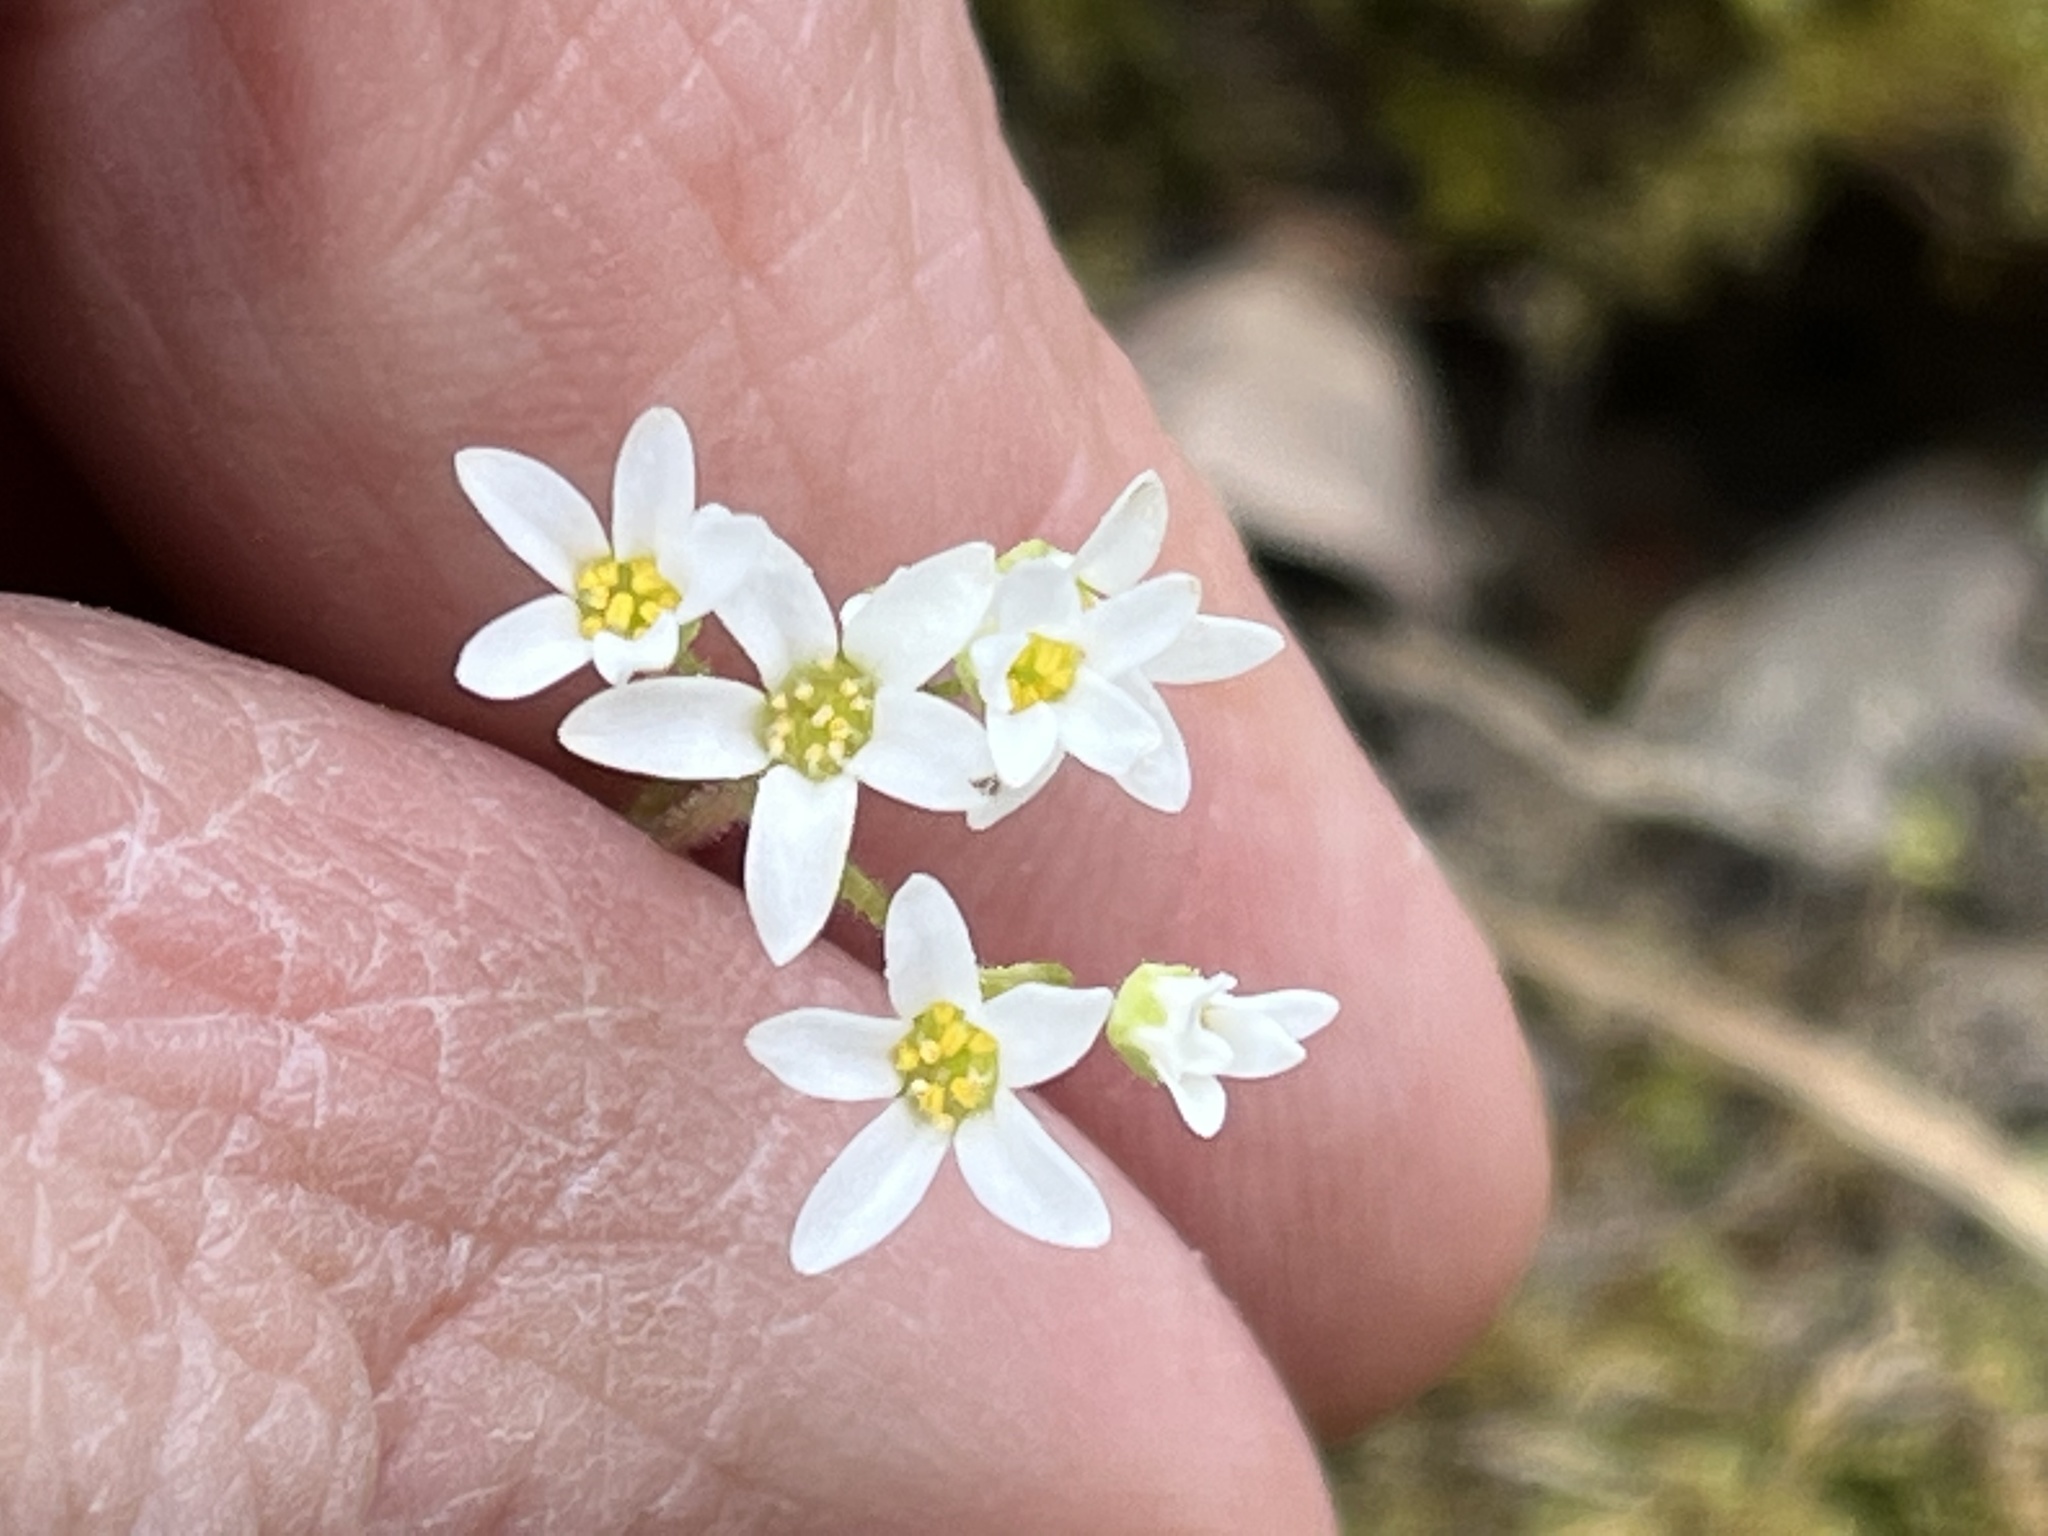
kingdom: Plantae
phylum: Tracheophyta
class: Magnoliopsida
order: Saxifragales
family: Saxifragaceae
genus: Micranthes
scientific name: Micranthes virginiensis
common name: Early saxifrage
